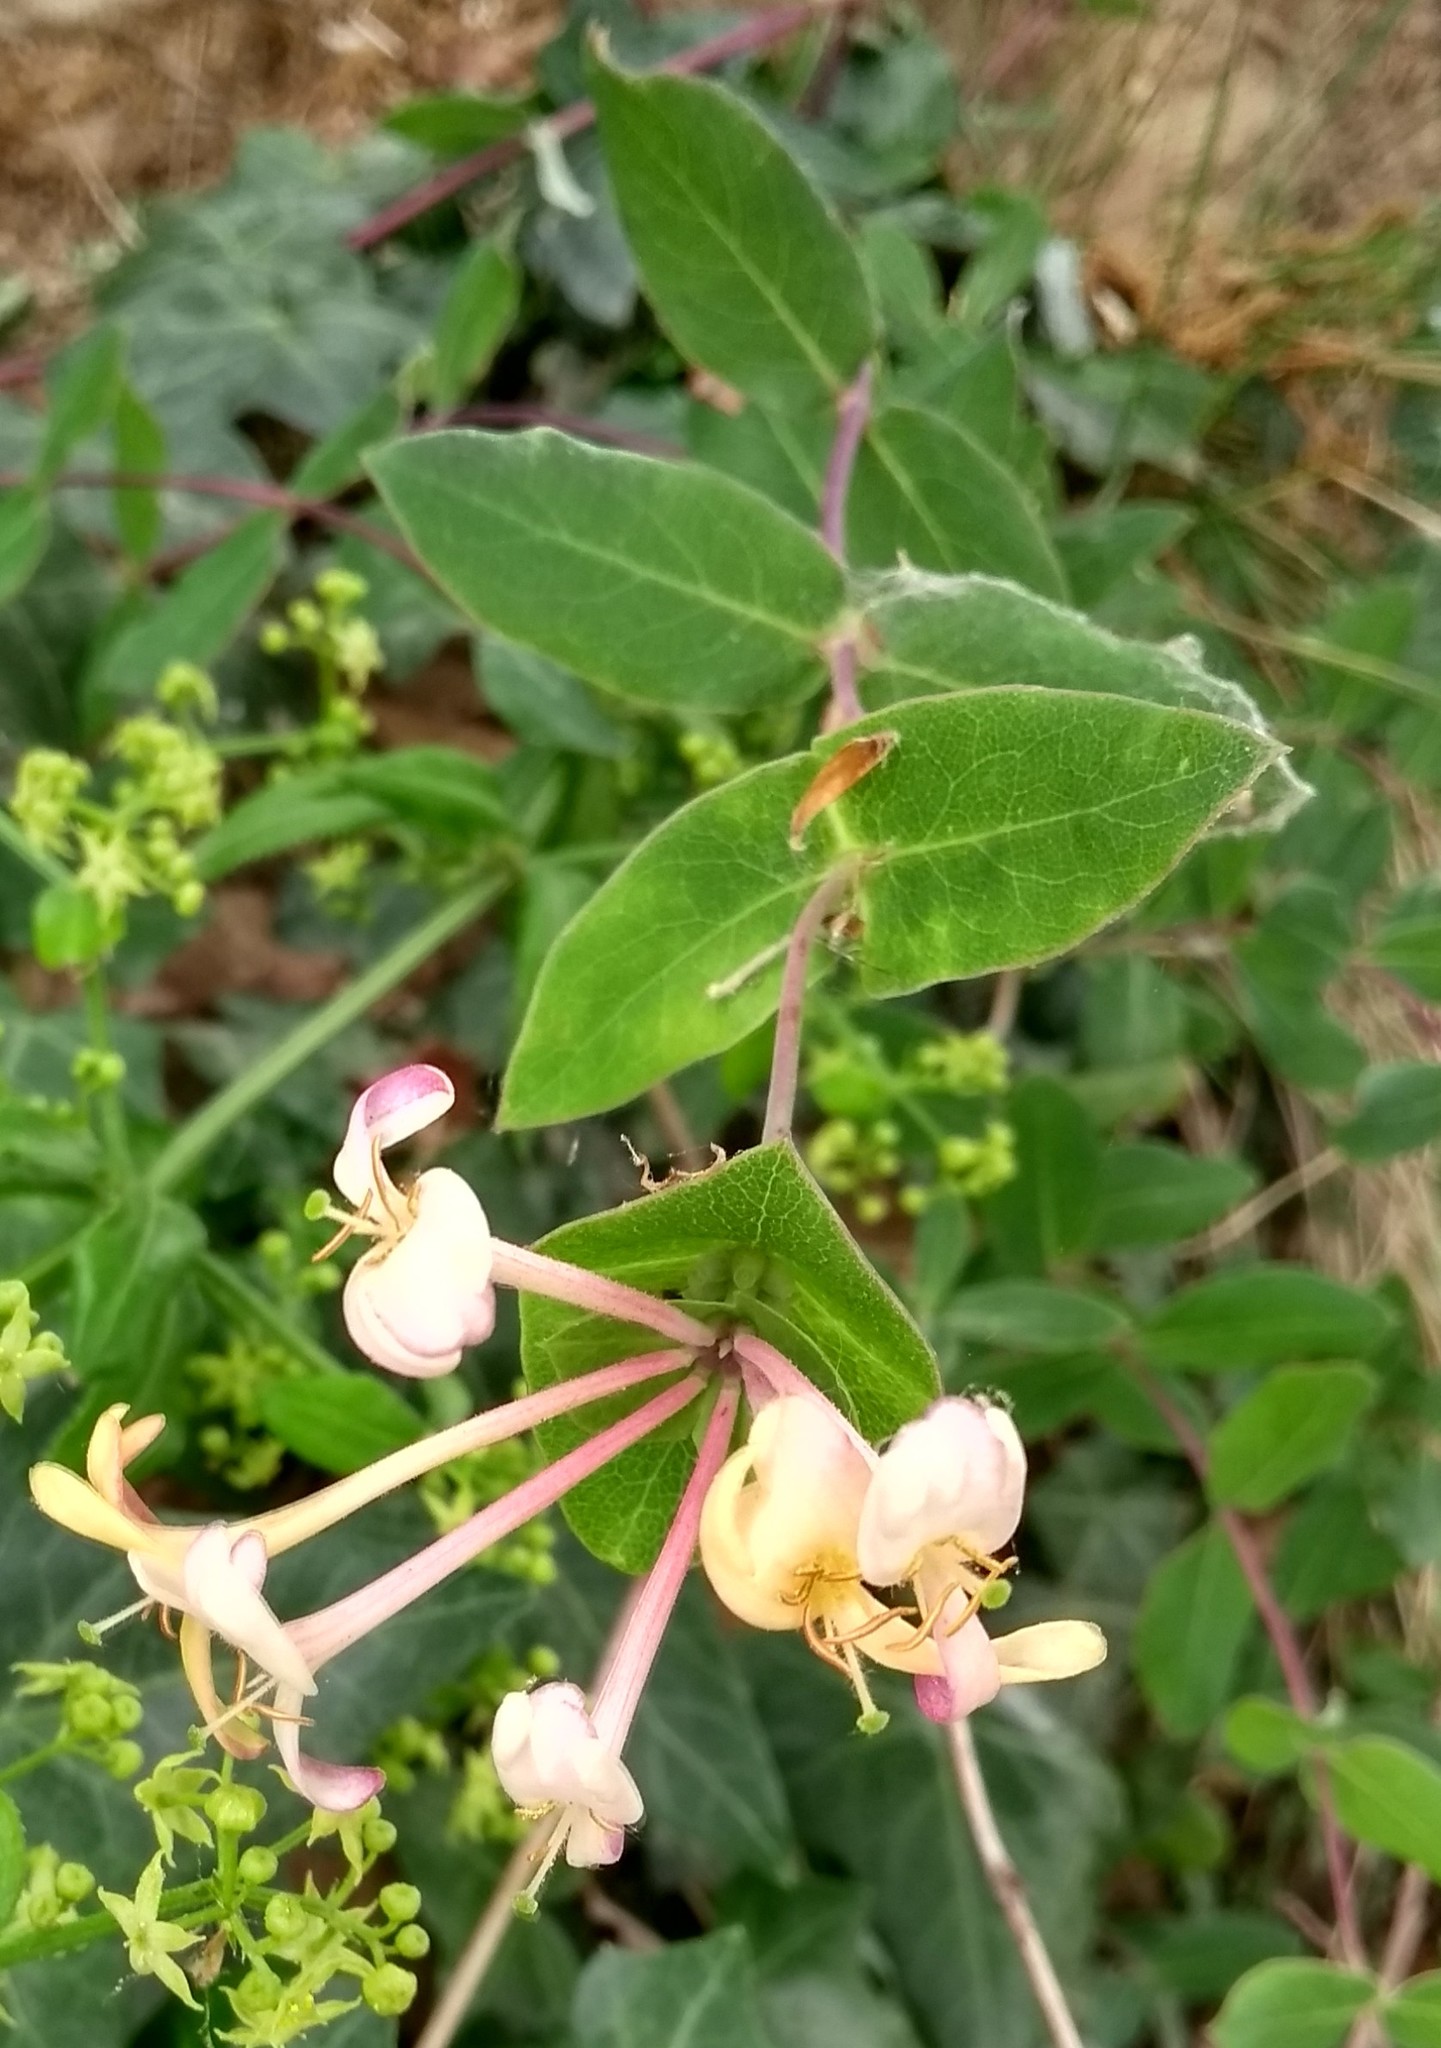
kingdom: Plantae
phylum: Tracheophyta
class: Magnoliopsida
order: Dipsacales
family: Caprifoliaceae
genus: Lonicera
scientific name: Lonicera implexa
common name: Minorca honeysuckle
